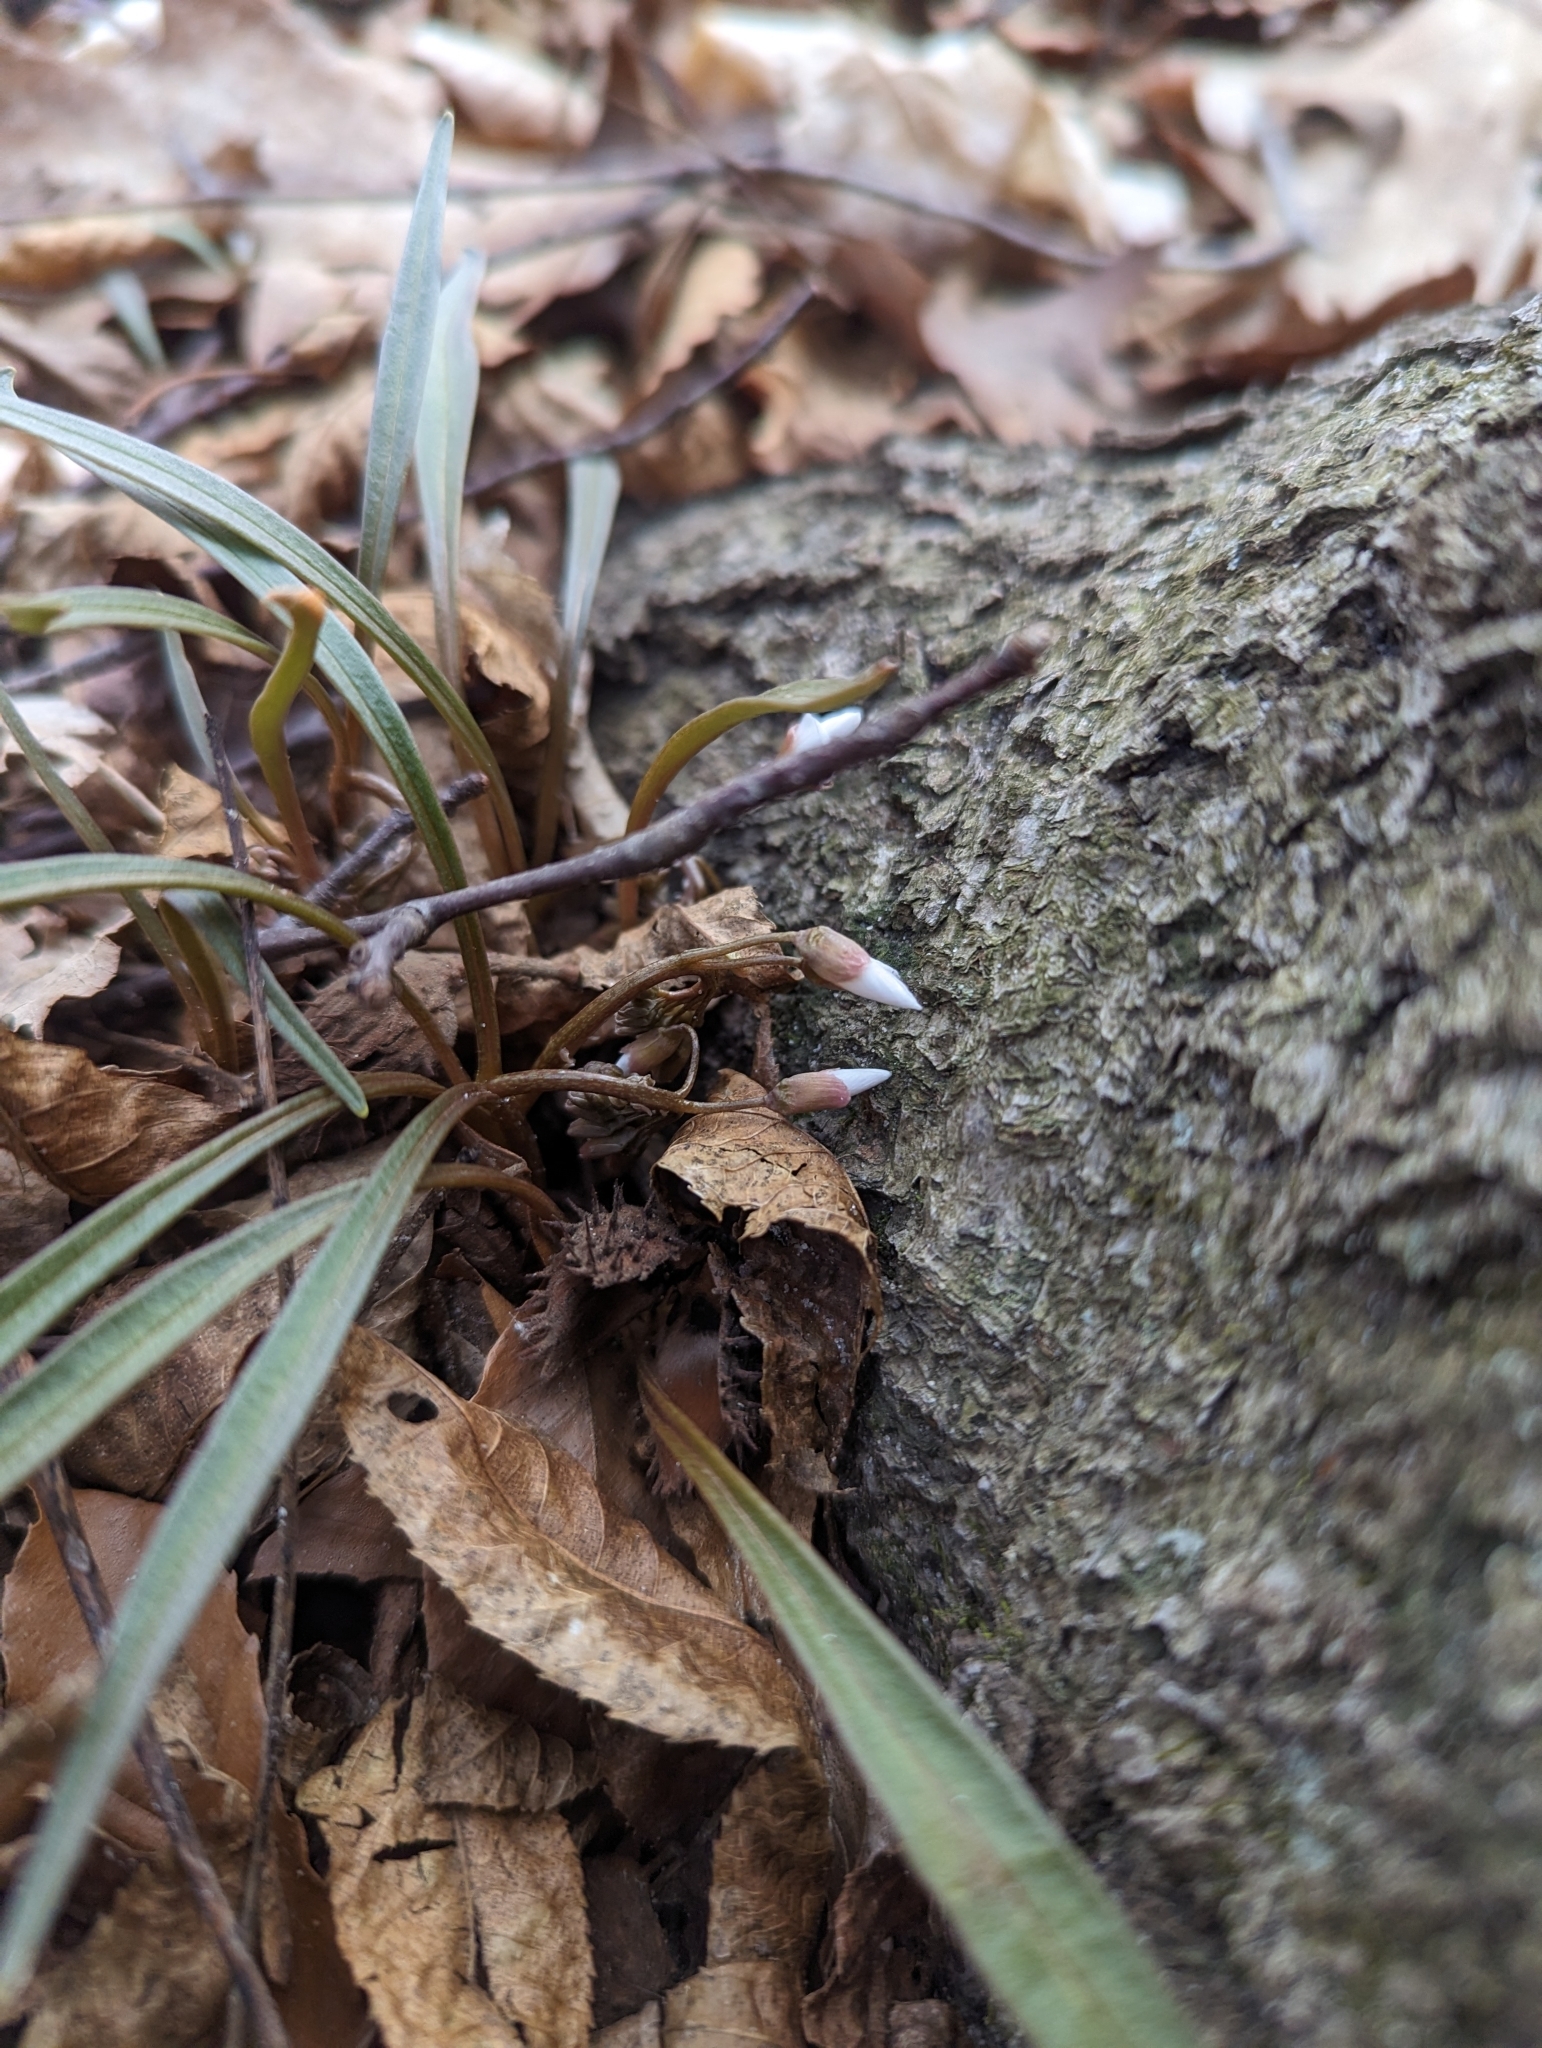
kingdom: Plantae
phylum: Tracheophyta
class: Magnoliopsida
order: Caryophyllales
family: Montiaceae
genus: Claytonia
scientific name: Claytonia virginica
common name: Virginia springbeauty
